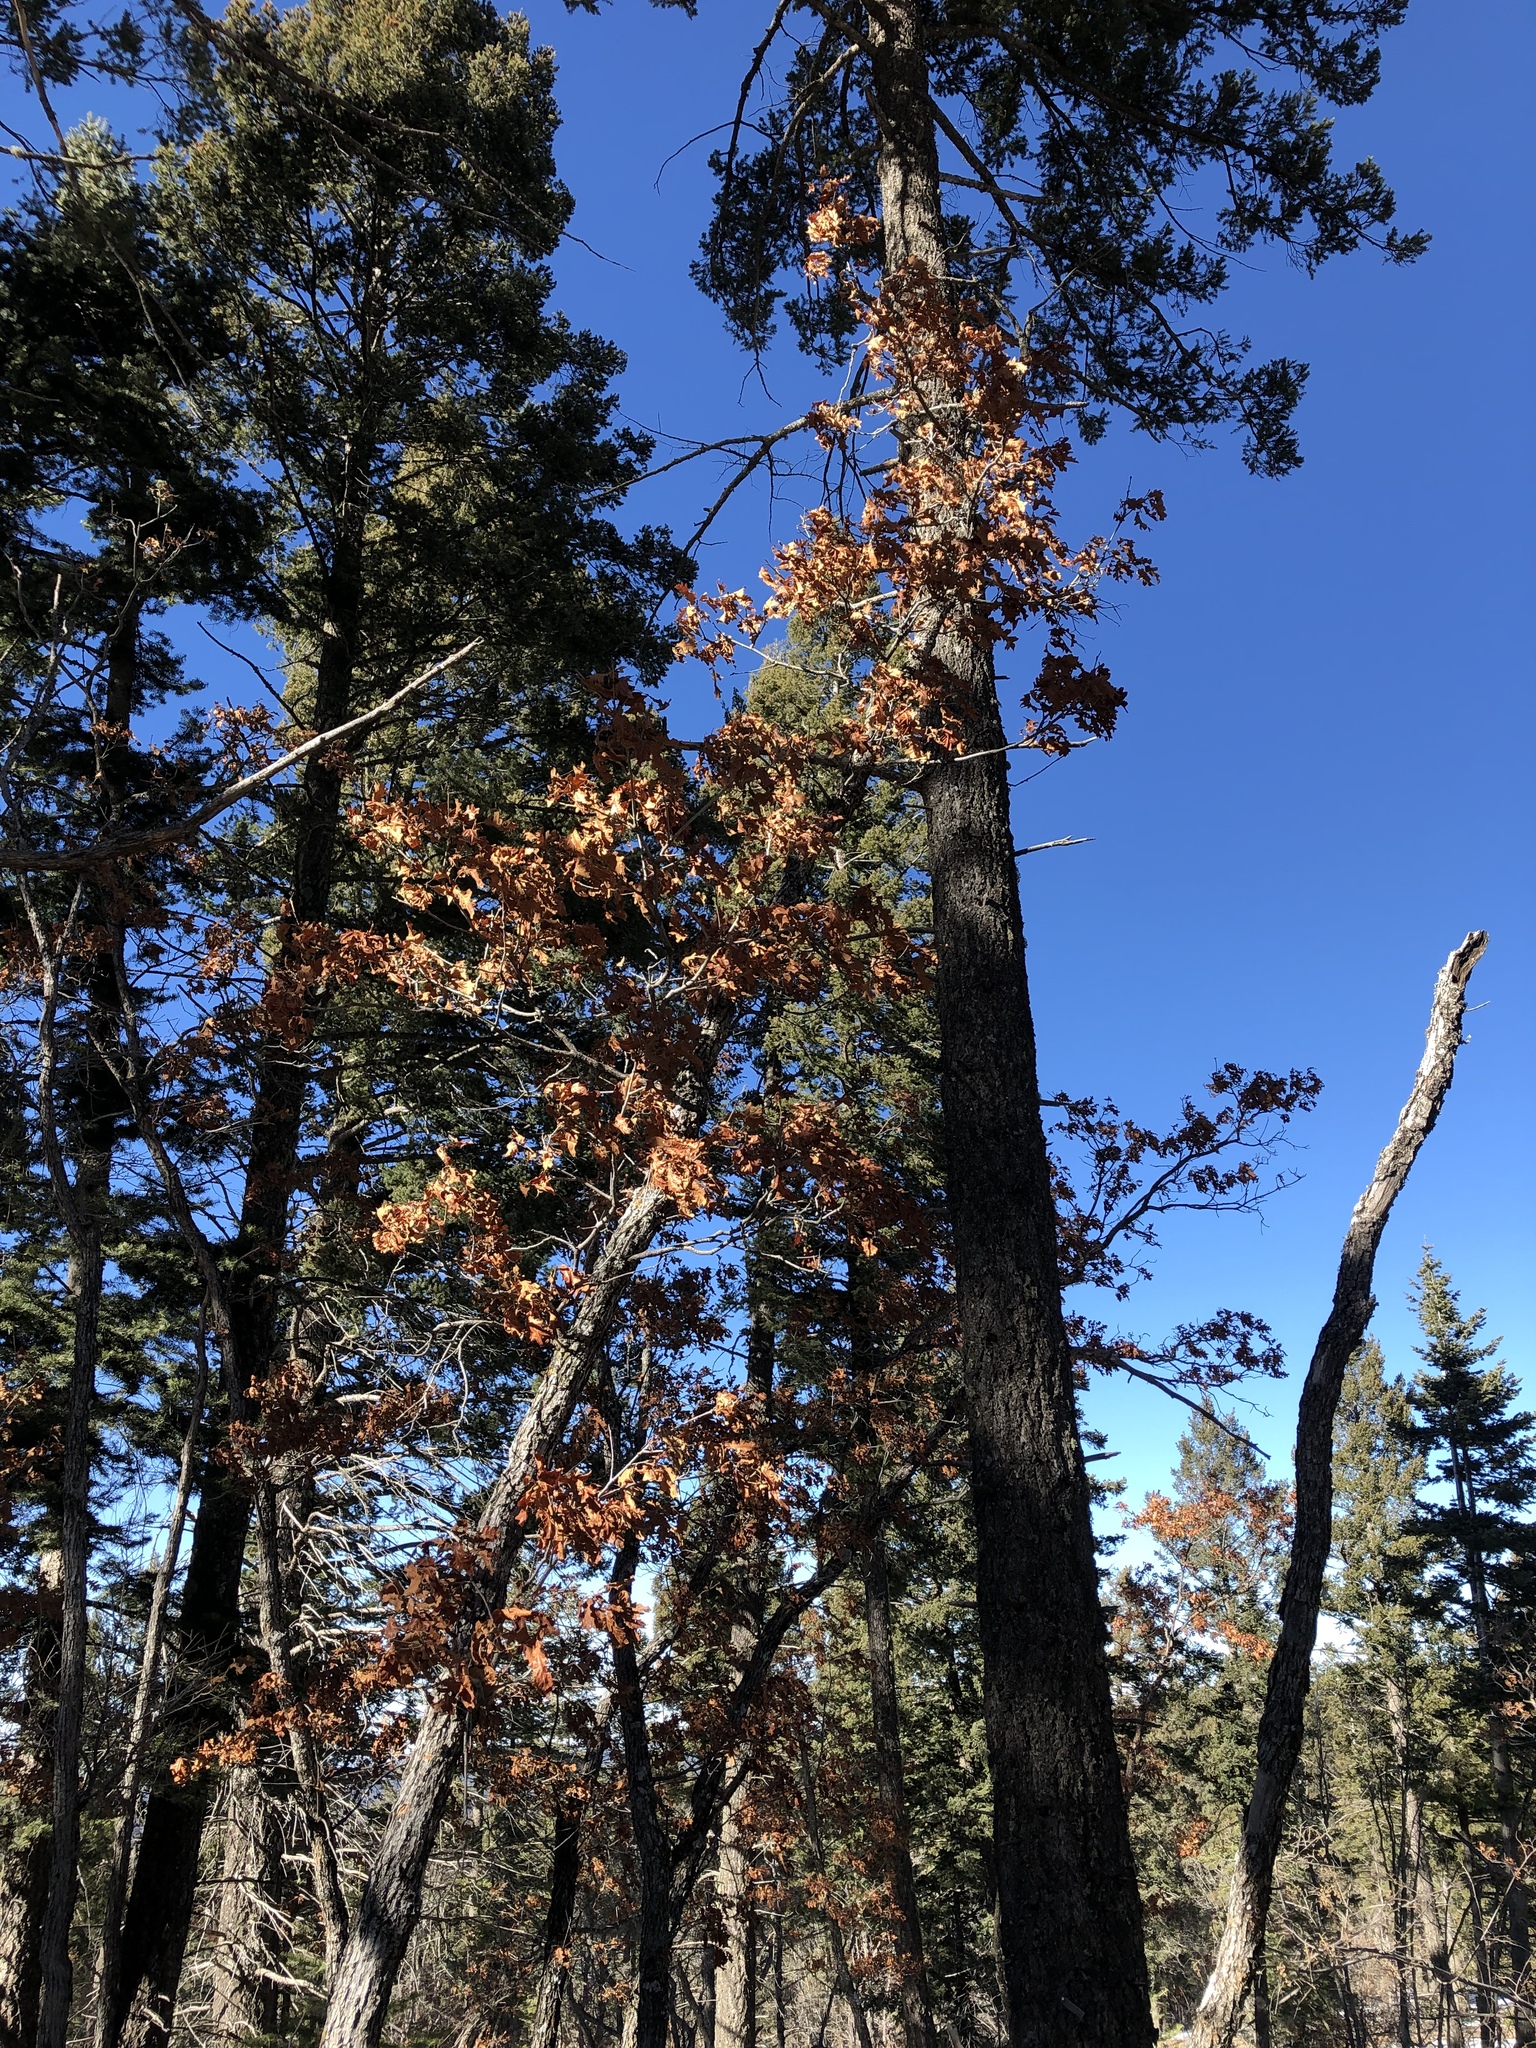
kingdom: Plantae
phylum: Tracheophyta
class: Magnoliopsida
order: Fagales
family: Fagaceae
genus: Quercus
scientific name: Quercus gambelii
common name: Gambel oak
